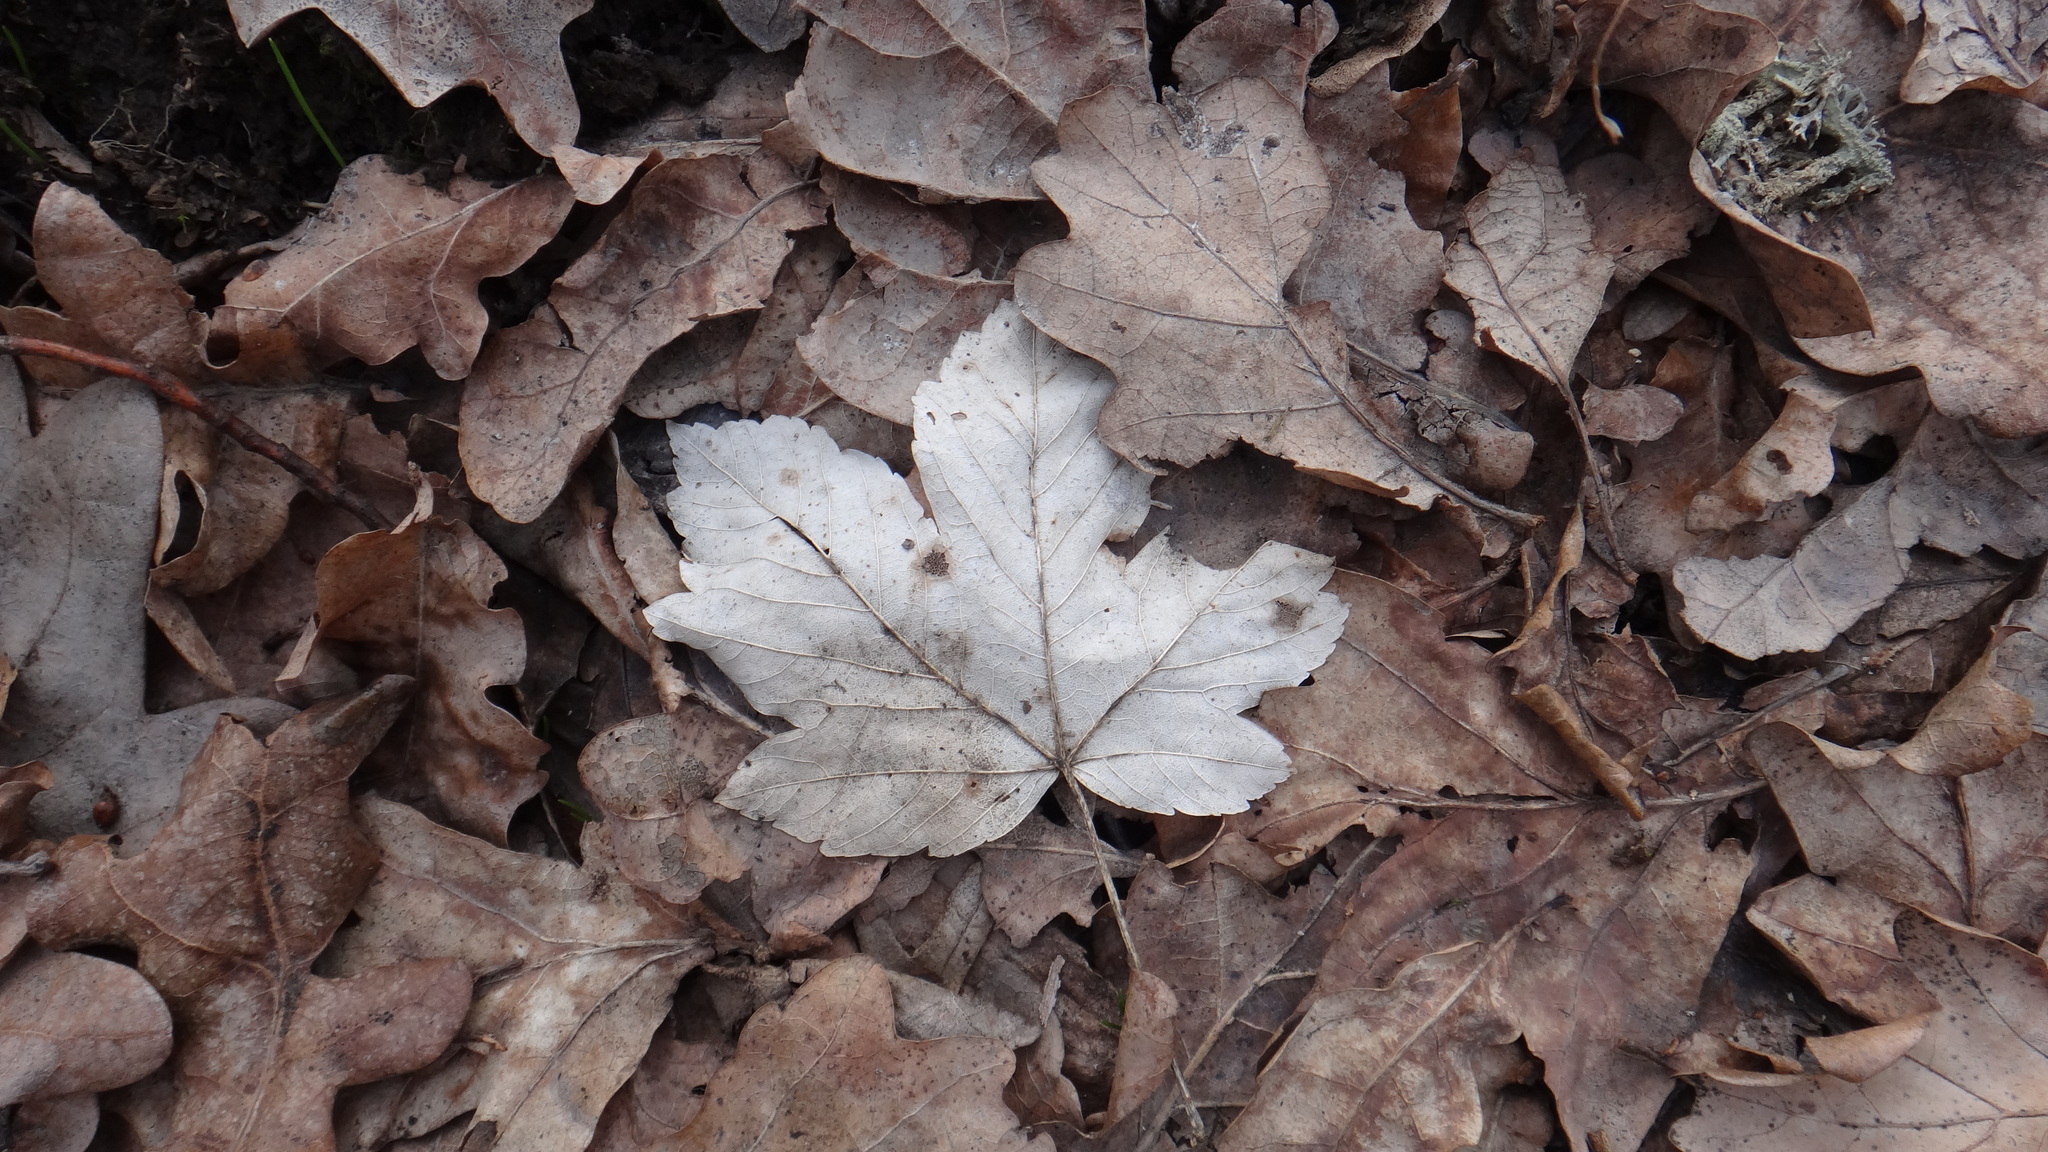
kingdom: Plantae
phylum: Tracheophyta
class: Magnoliopsida
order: Sapindales
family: Sapindaceae
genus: Acer
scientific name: Acer pseudoplatanus
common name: Sycamore
